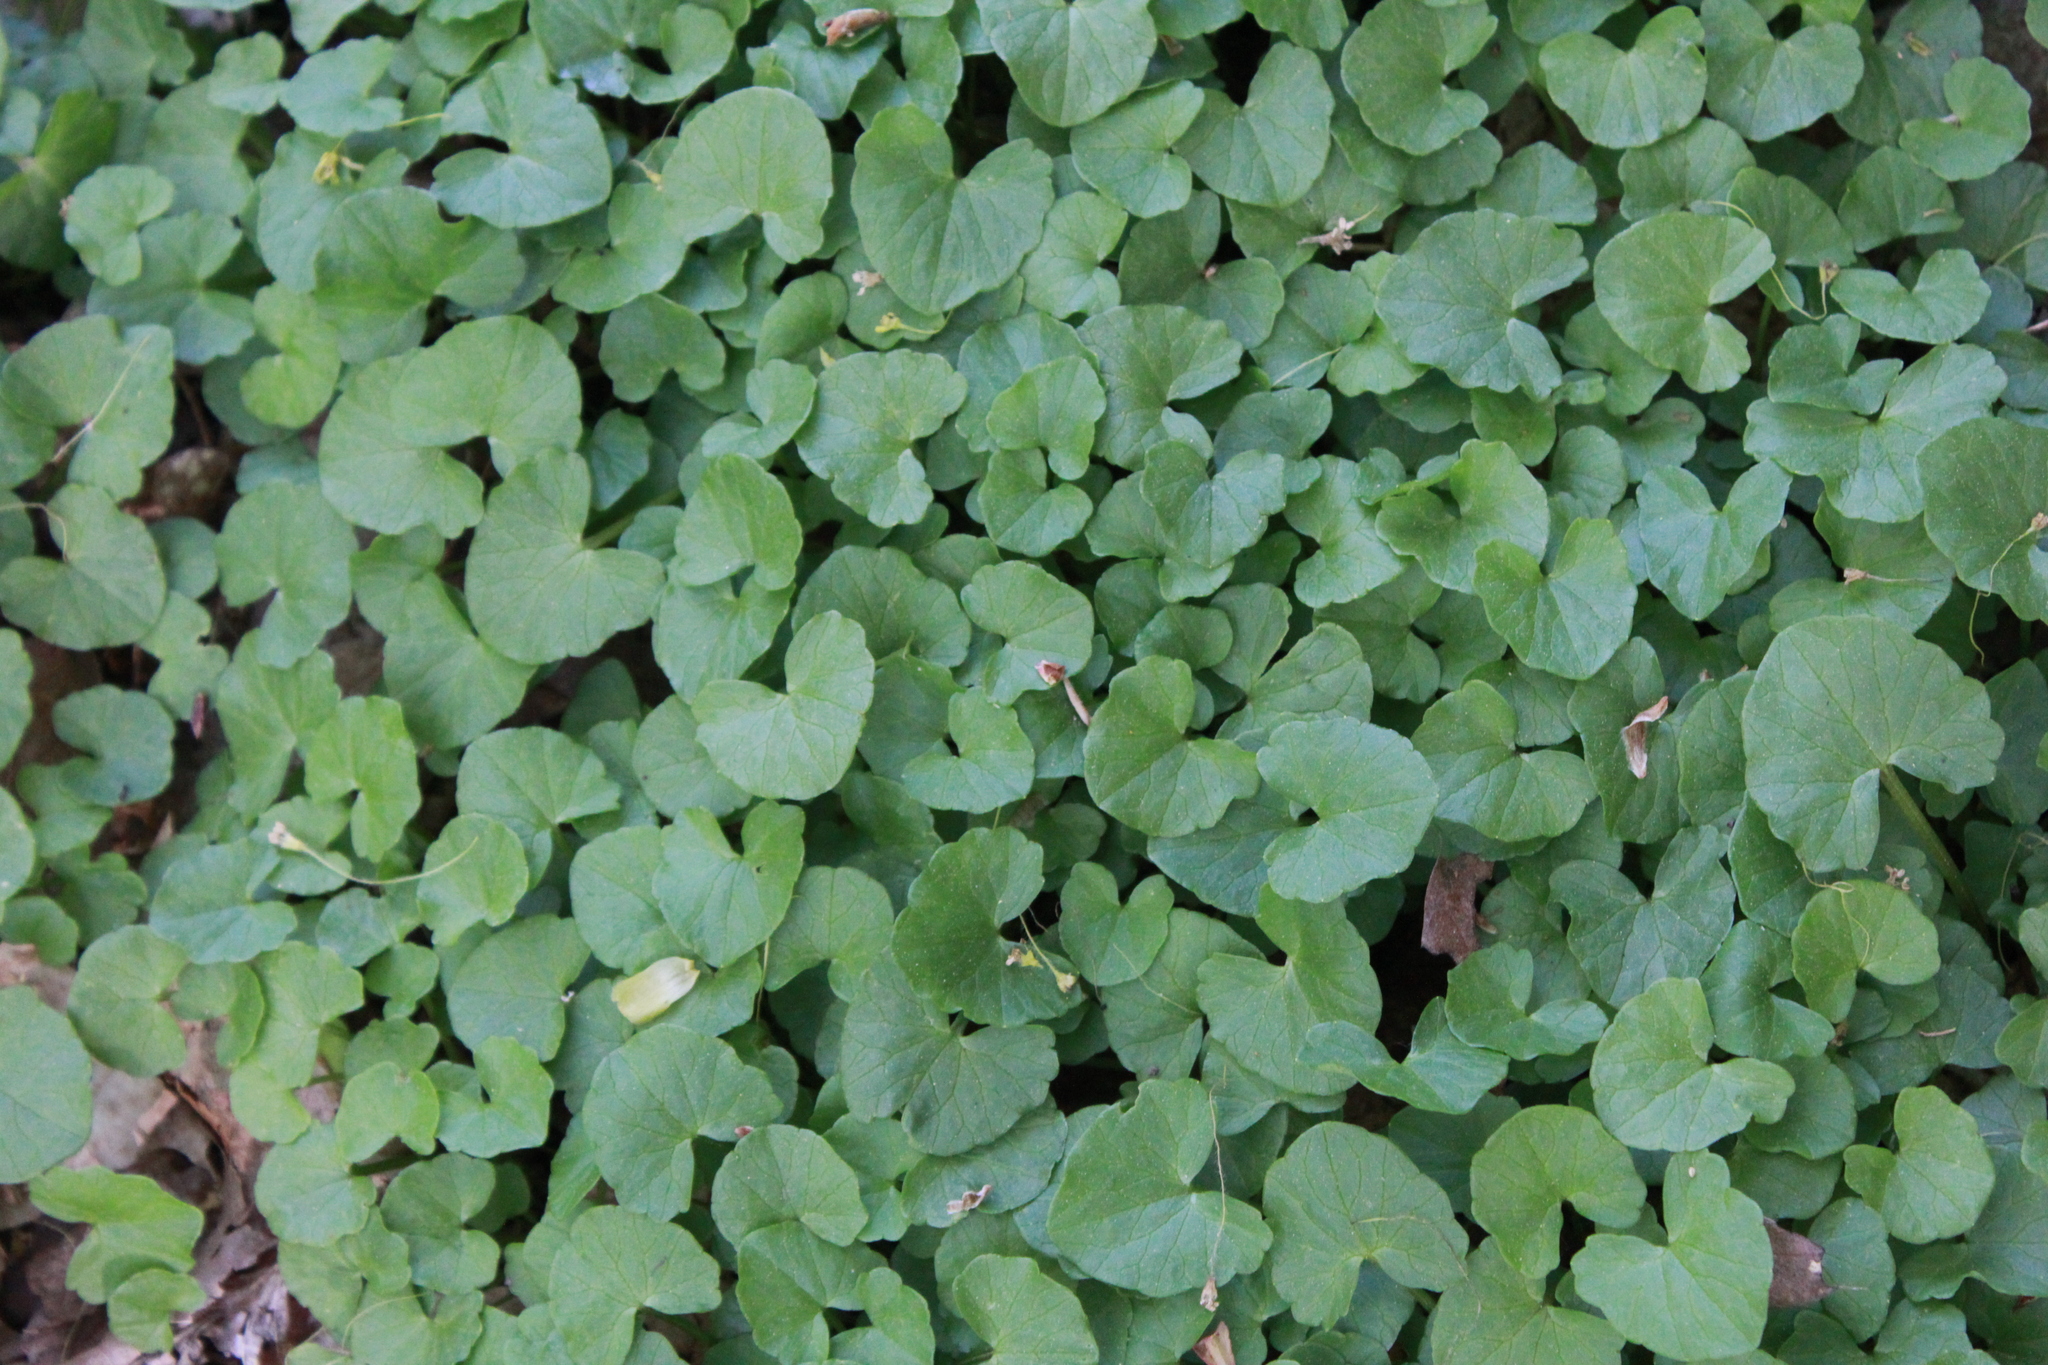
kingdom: Plantae
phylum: Tracheophyta
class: Magnoliopsida
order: Ranunculales
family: Ranunculaceae
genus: Ficaria
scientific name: Ficaria verna
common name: Lesser celandine
